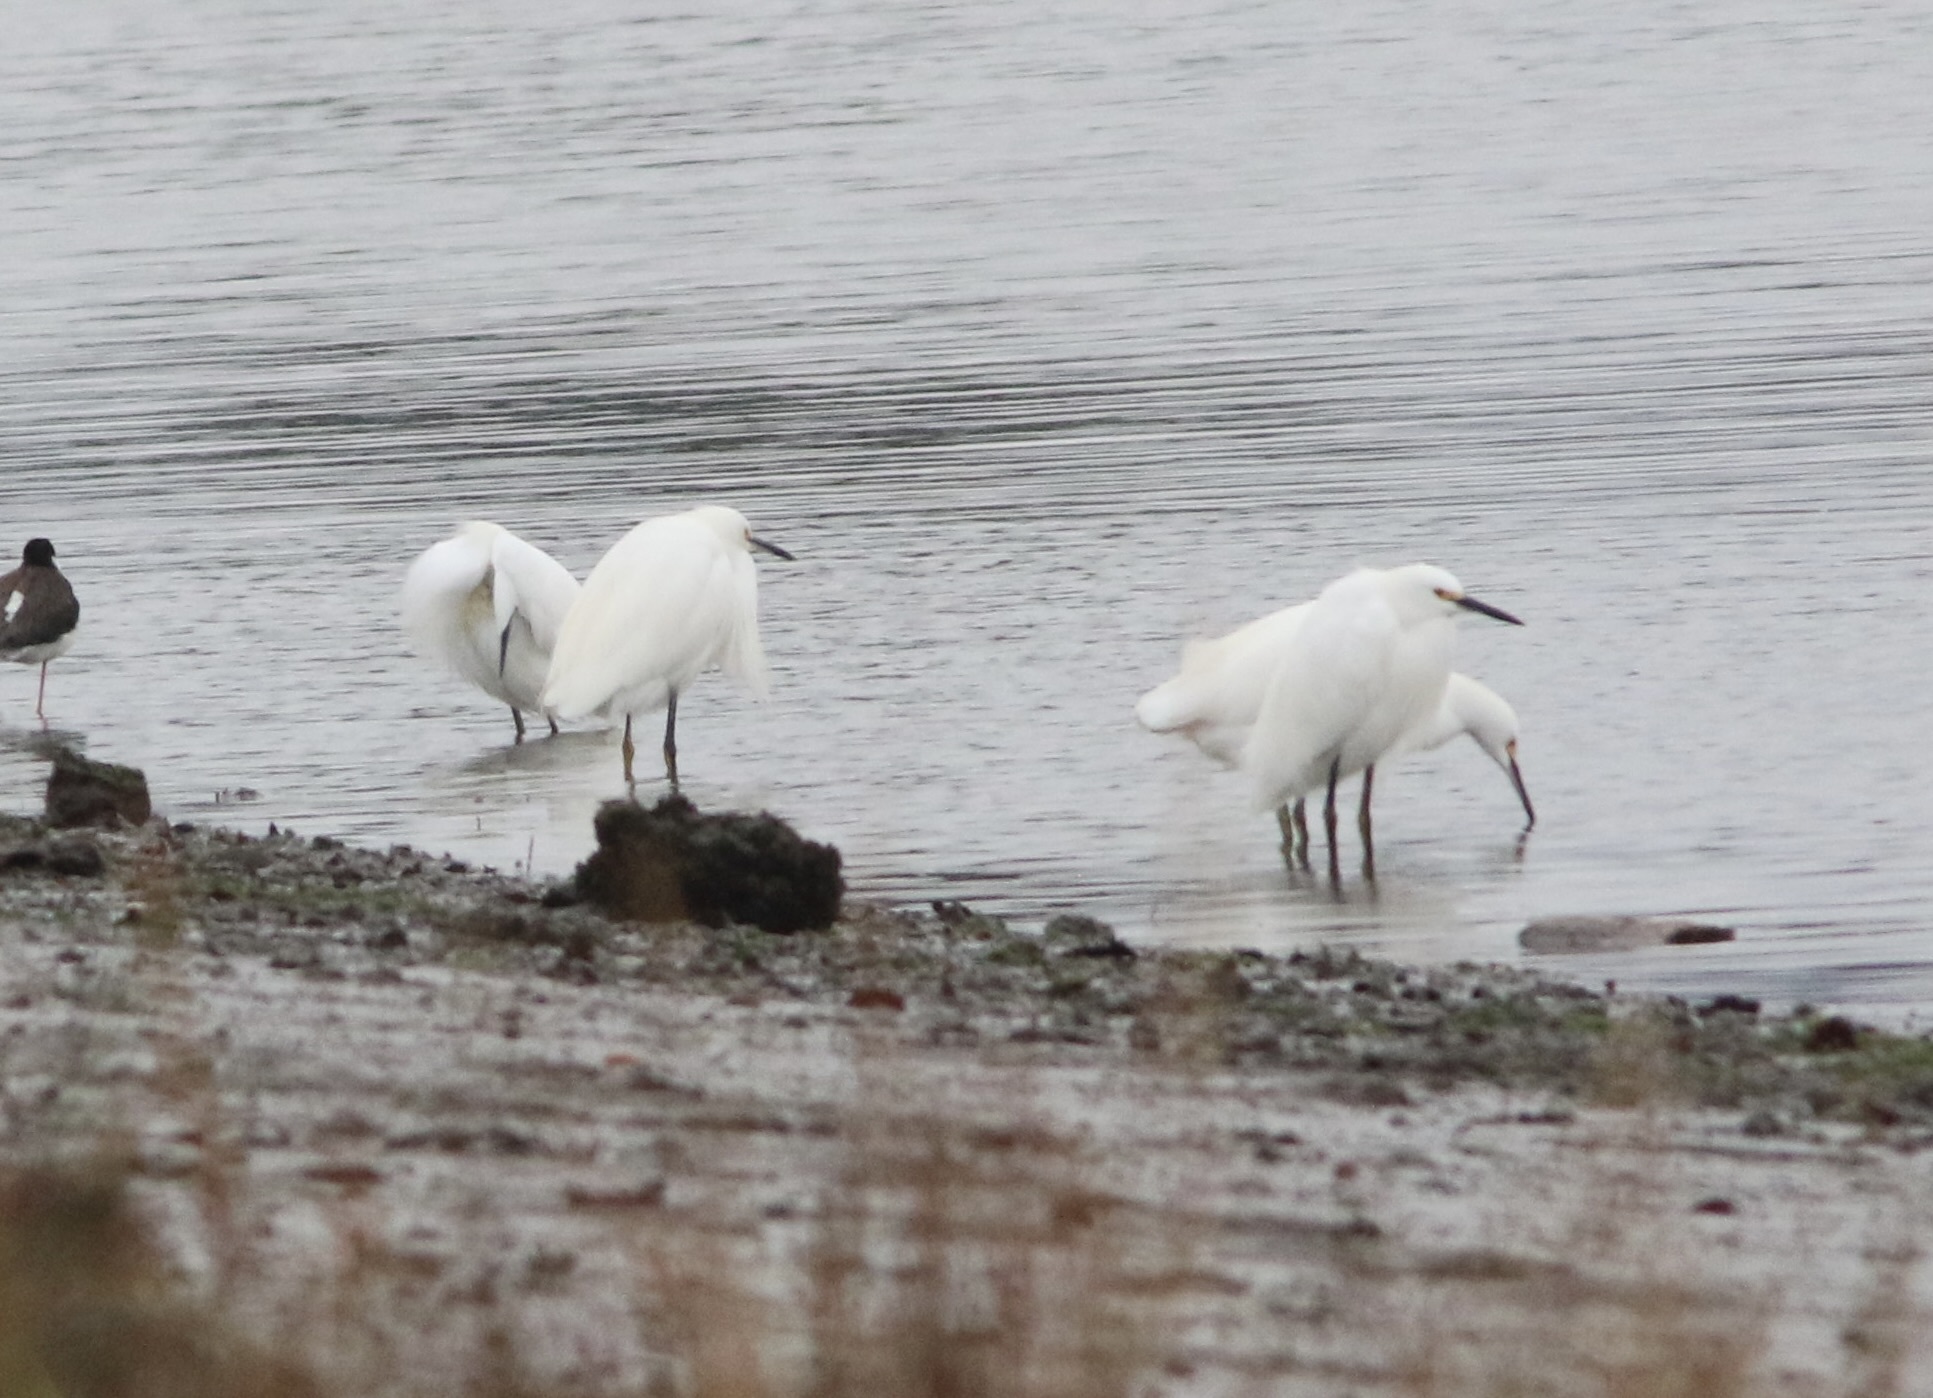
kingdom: Animalia
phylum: Chordata
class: Aves
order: Pelecaniformes
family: Ardeidae
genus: Egretta
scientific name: Egretta thula
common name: Snowy egret
